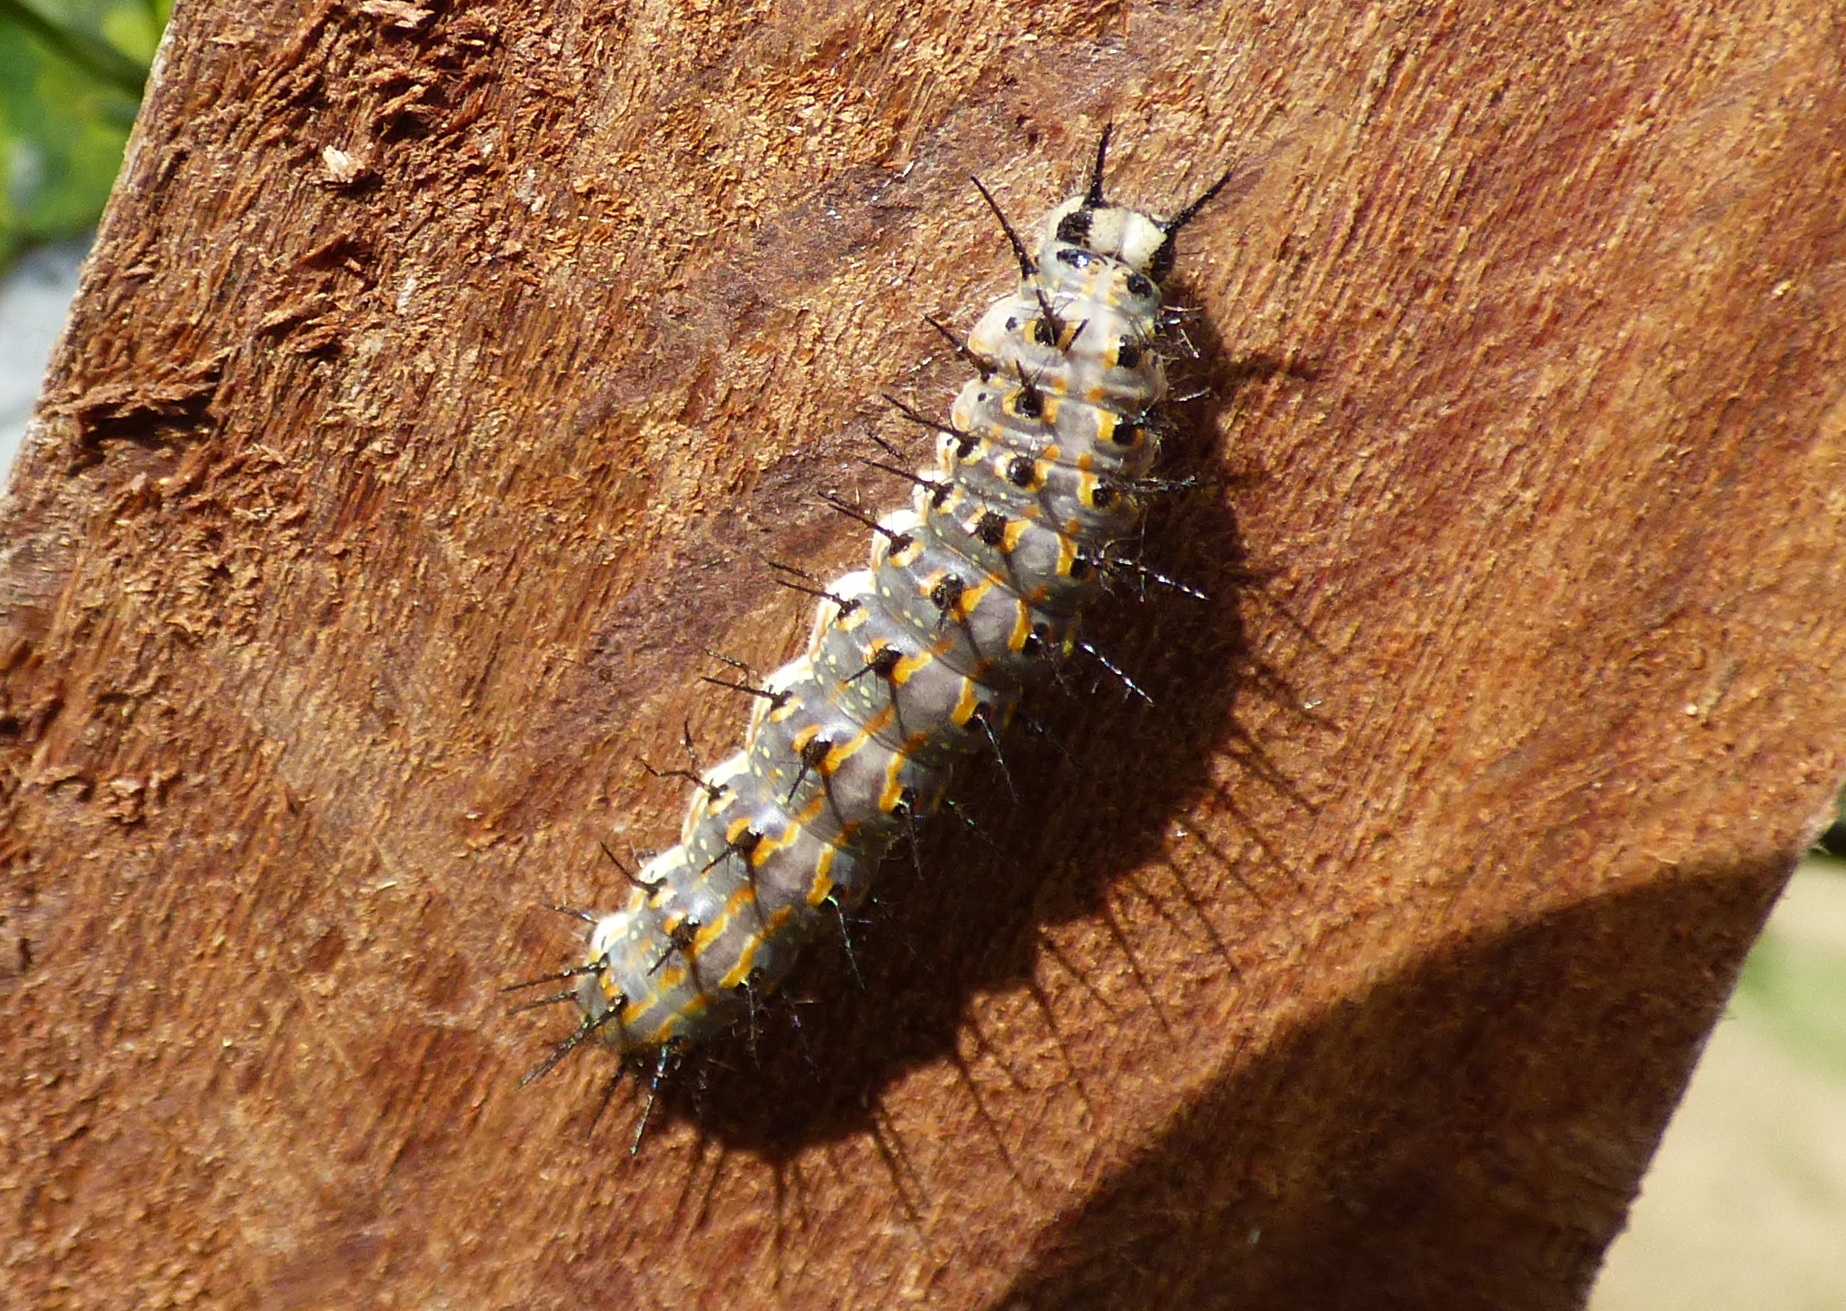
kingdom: Animalia
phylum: Arthropoda
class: Insecta
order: Lepidoptera
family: Nymphalidae
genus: Dione
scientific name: Dione vanillae
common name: Gulf fritillary
